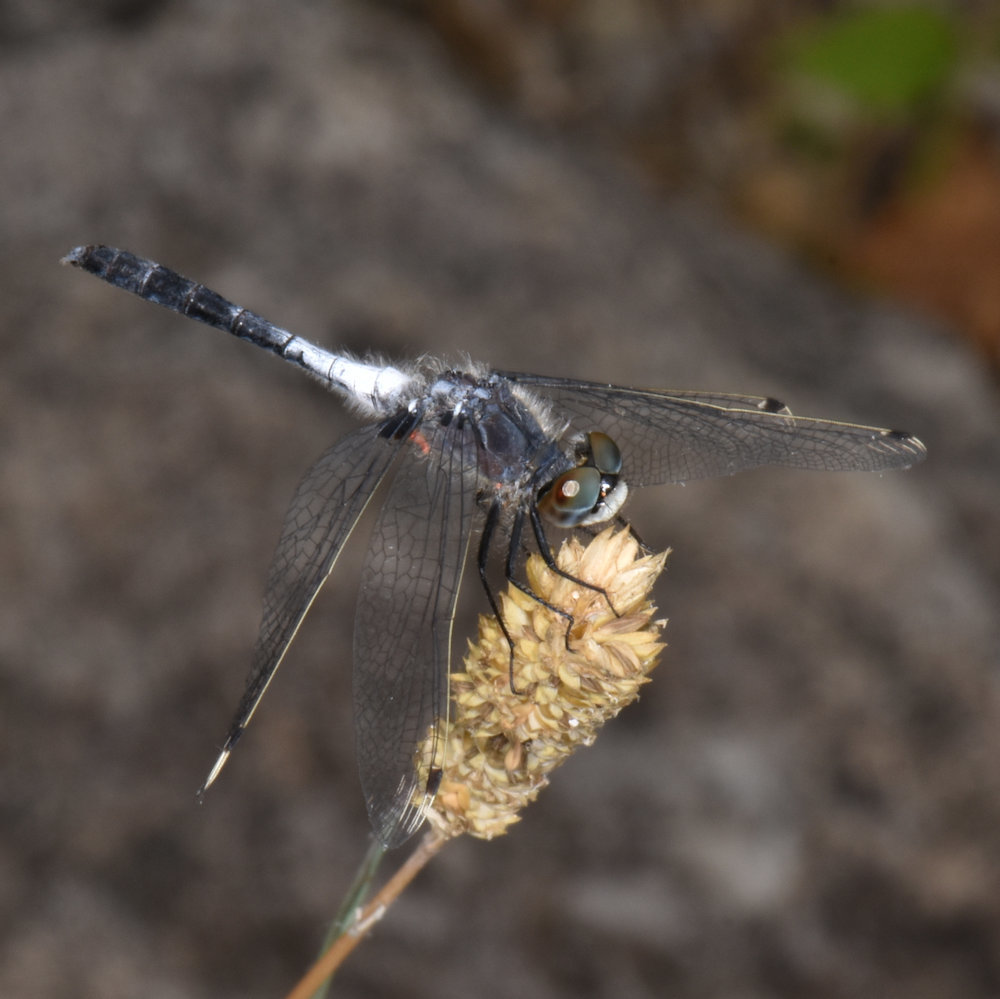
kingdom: Animalia
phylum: Arthropoda
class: Insecta
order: Odonata
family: Libellulidae
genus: Leucorrhinia
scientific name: Leucorrhinia frigida
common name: Frosted whiteface
